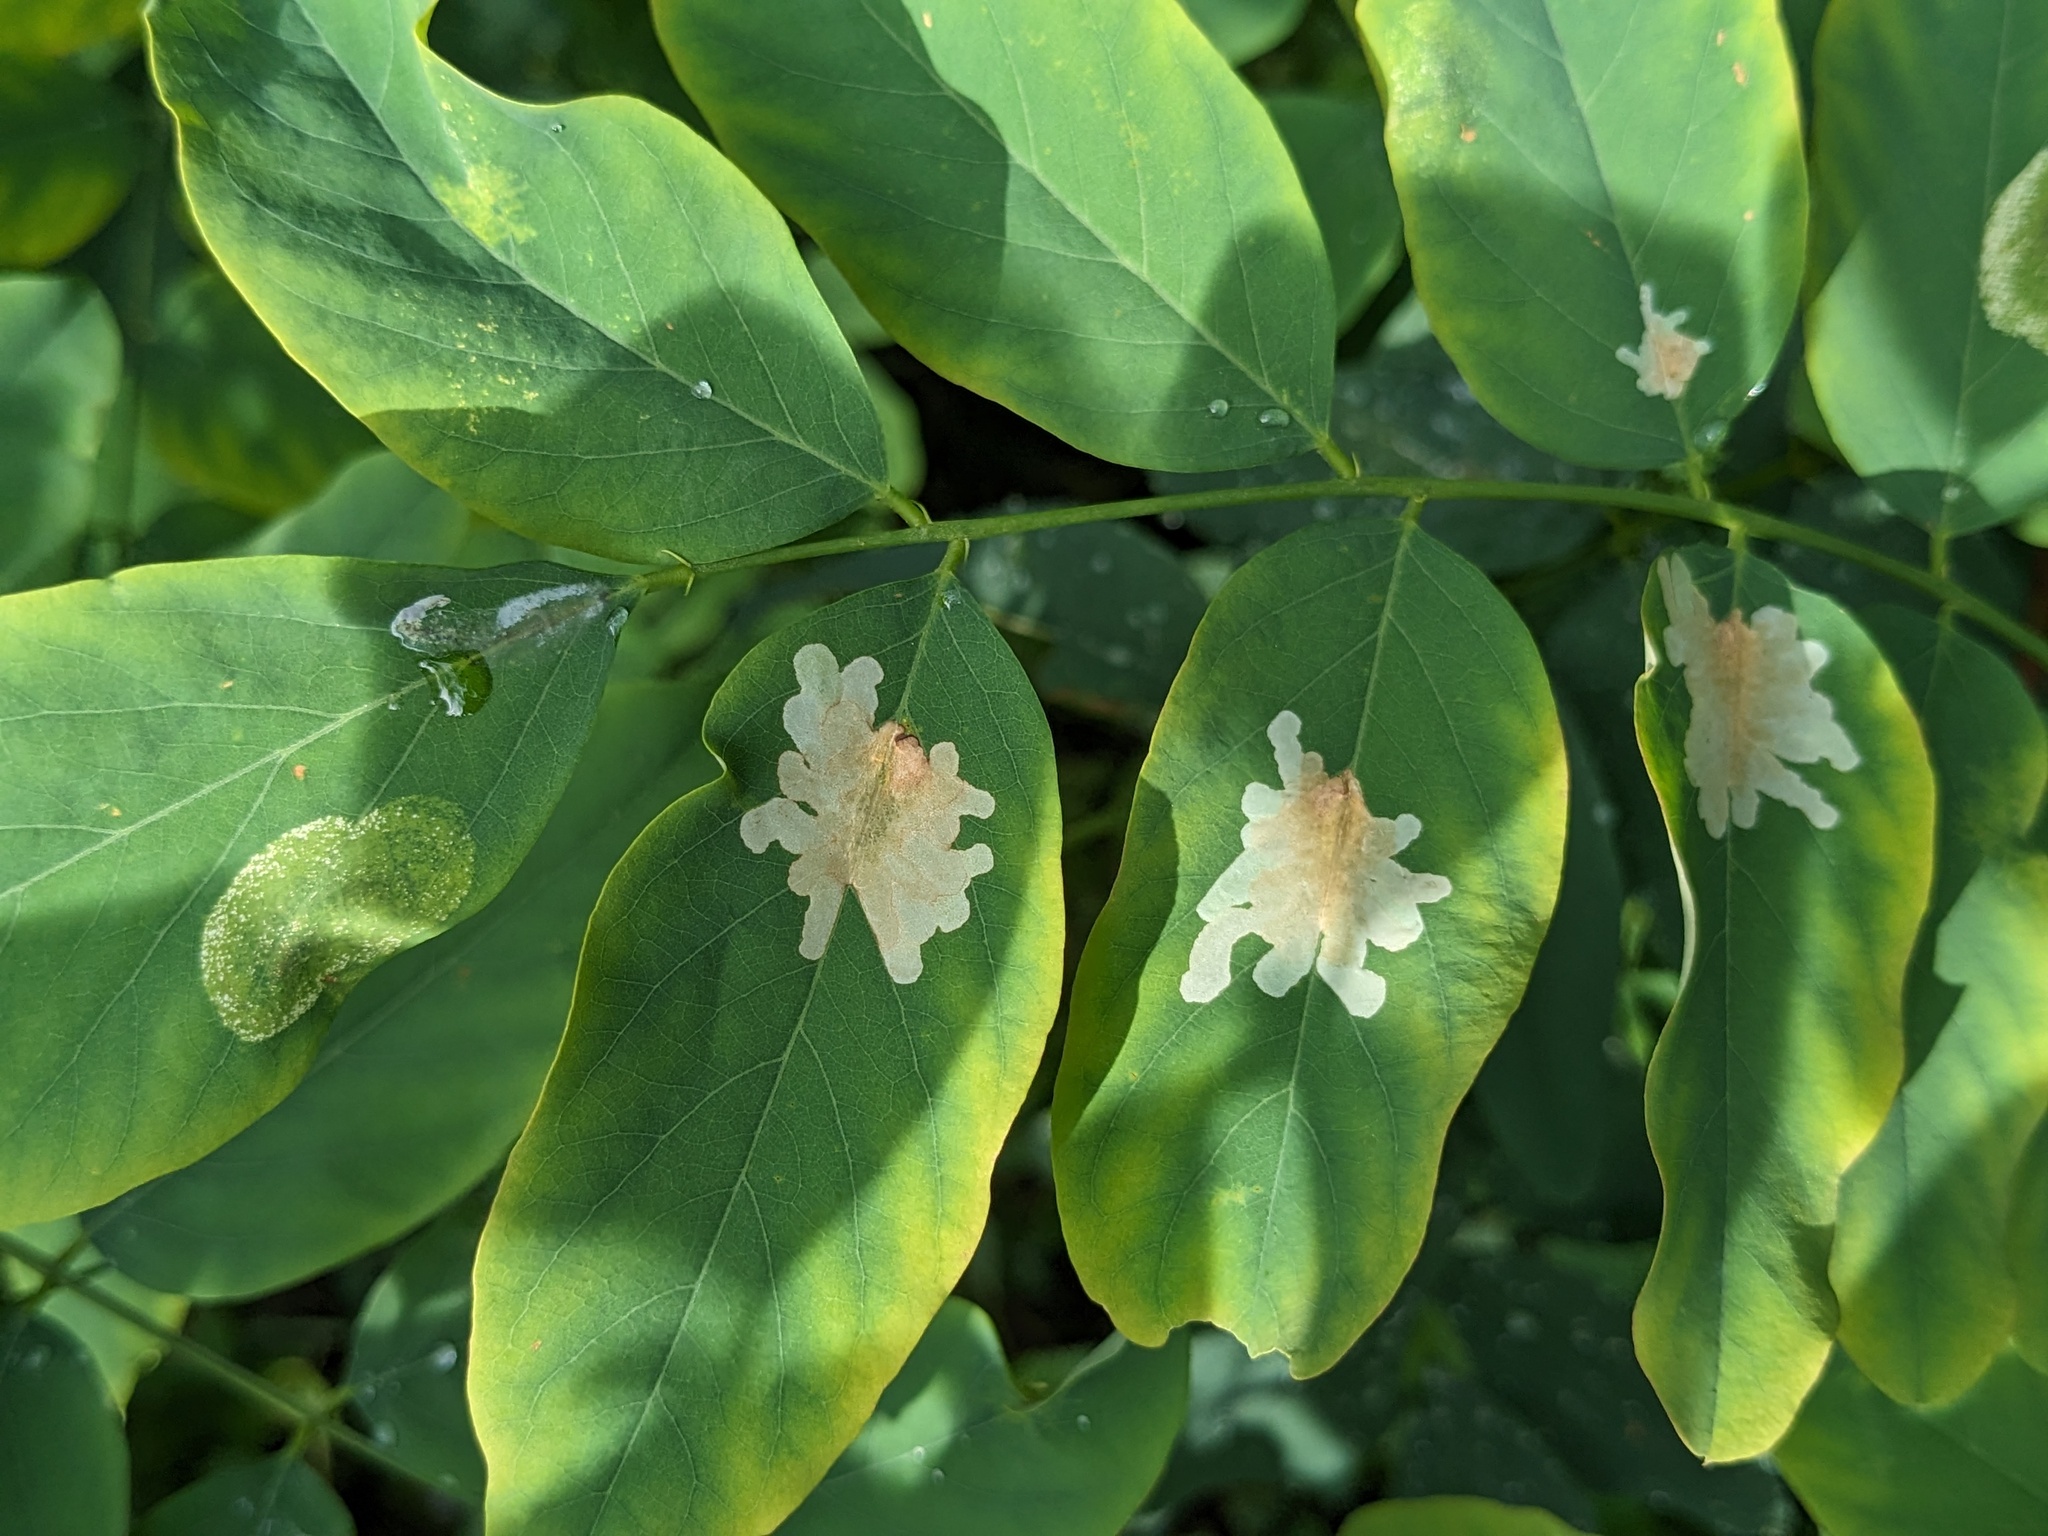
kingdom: Animalia
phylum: Arthropoda
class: Insecta
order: Lepidoptera
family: Gracillariidae
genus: Parectopa
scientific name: Parectopa robiniella
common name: Locust digitate leafminer
